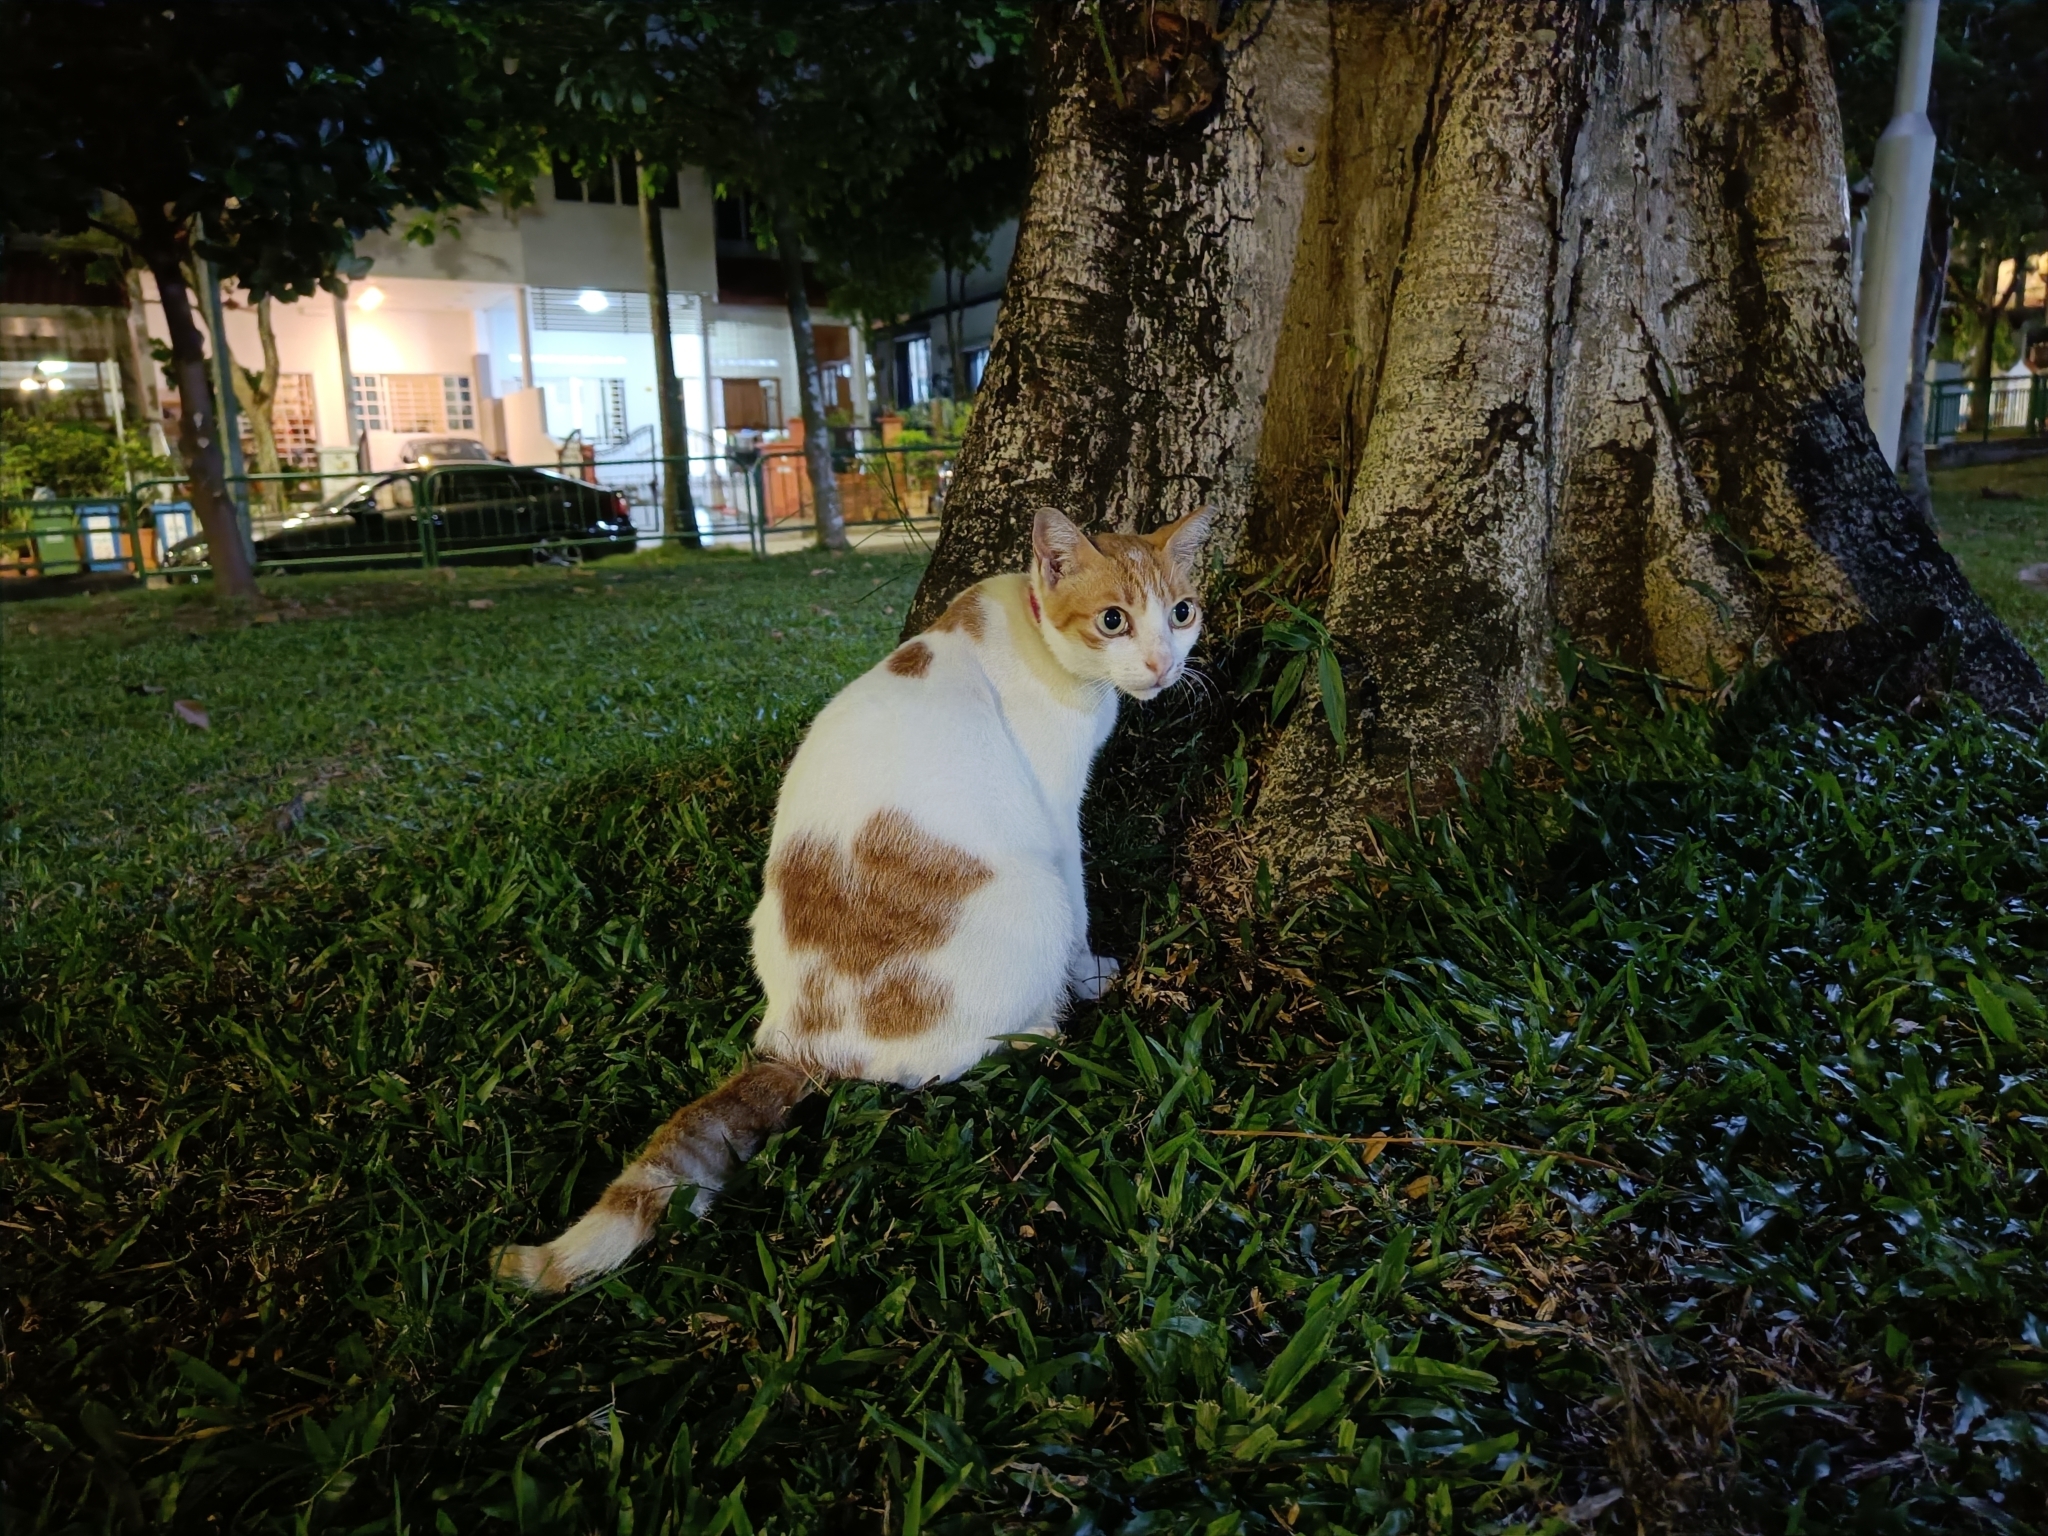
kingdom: Animalia
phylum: Chordata
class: Mammalia
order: Carnivora
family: Felidae
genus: Felis
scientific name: Felis catus
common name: Domestic cat
